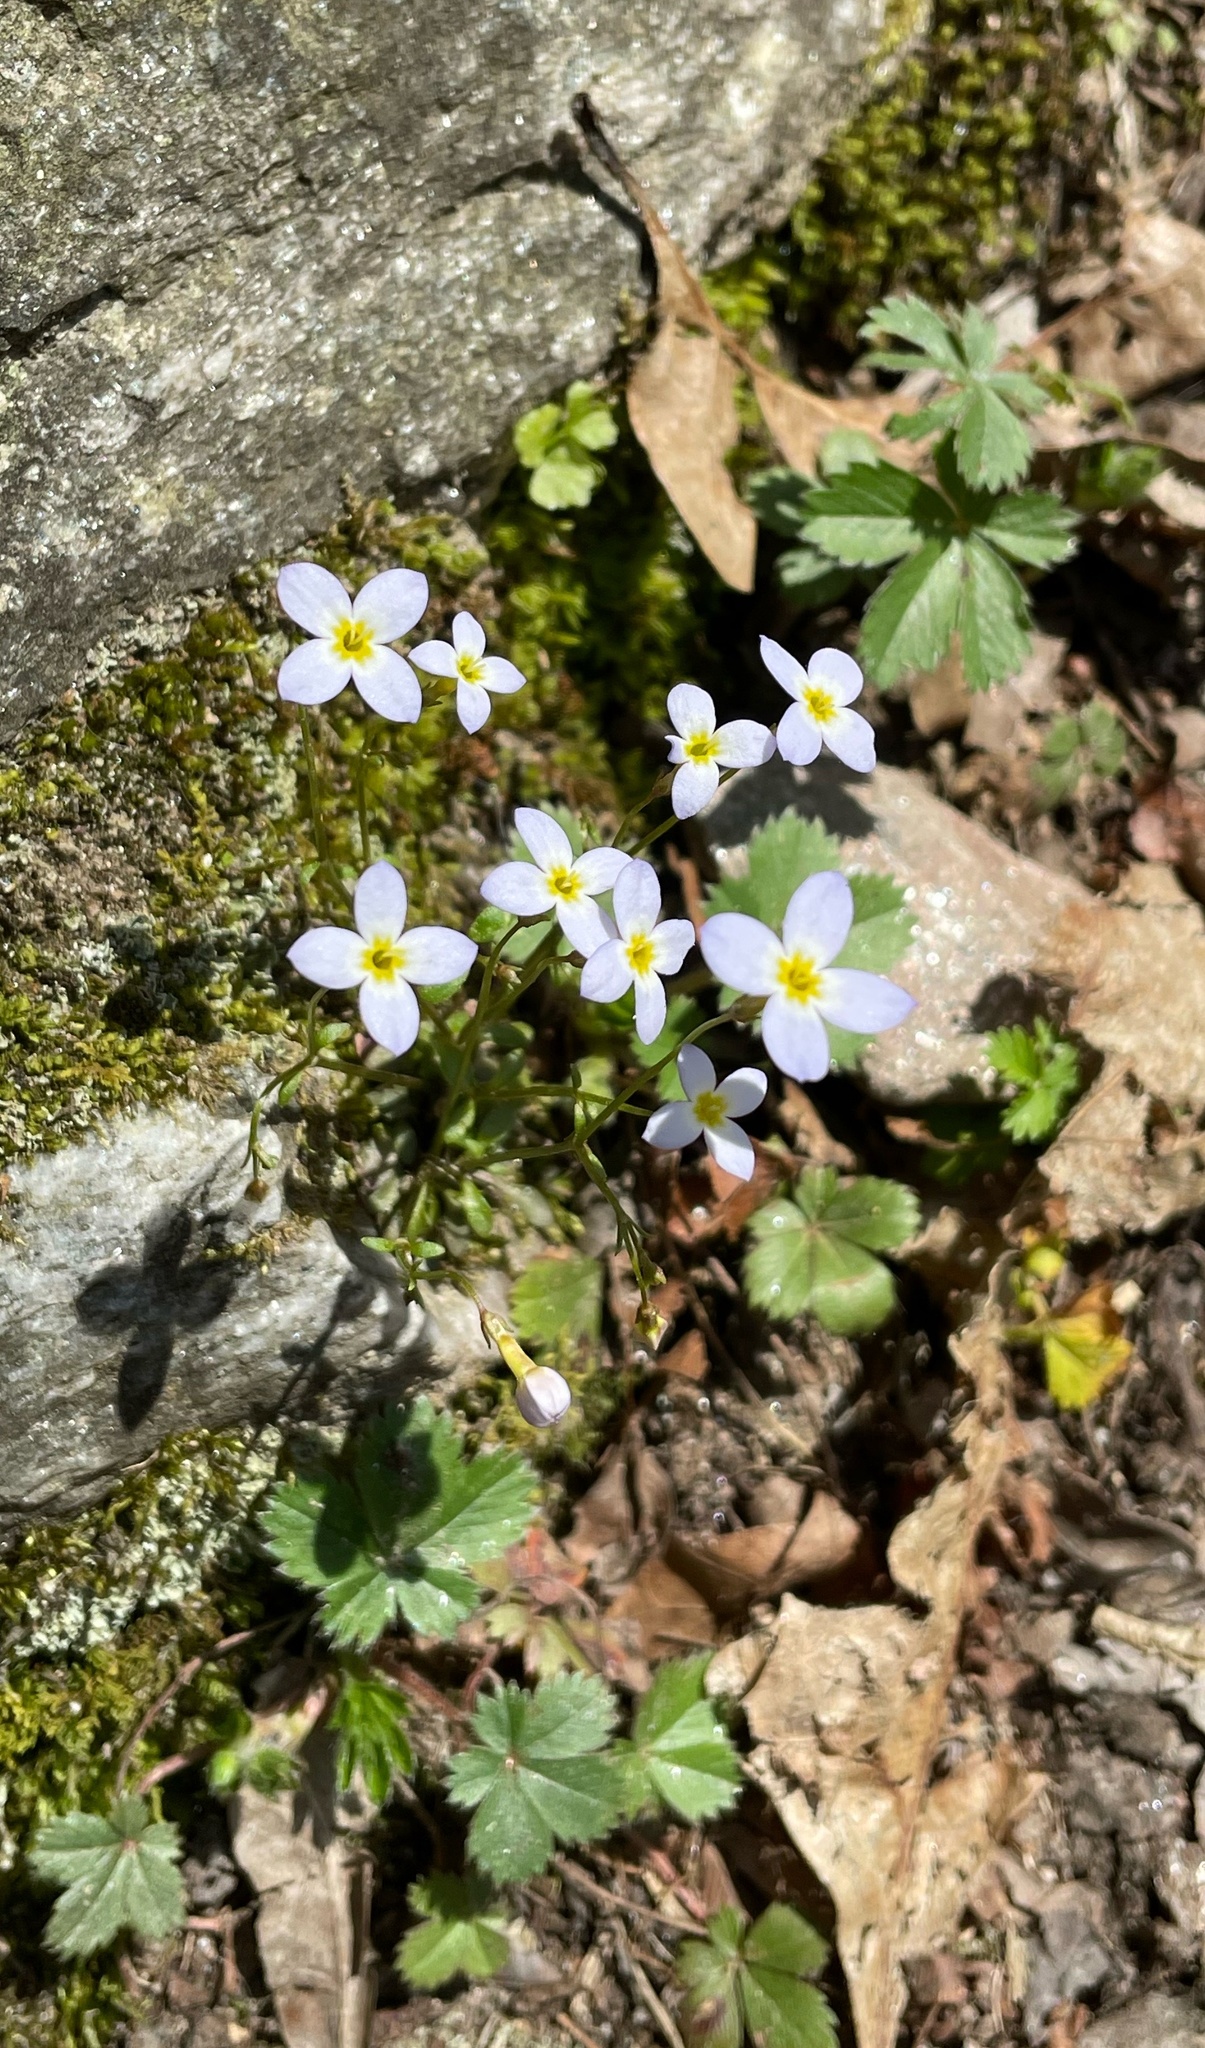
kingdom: Plantae
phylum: Tracheophyta
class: Magnoliopsida
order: Gentianales
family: Rubiaceae
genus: Houstonia
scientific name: Houstonia caerulea
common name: Bluets
